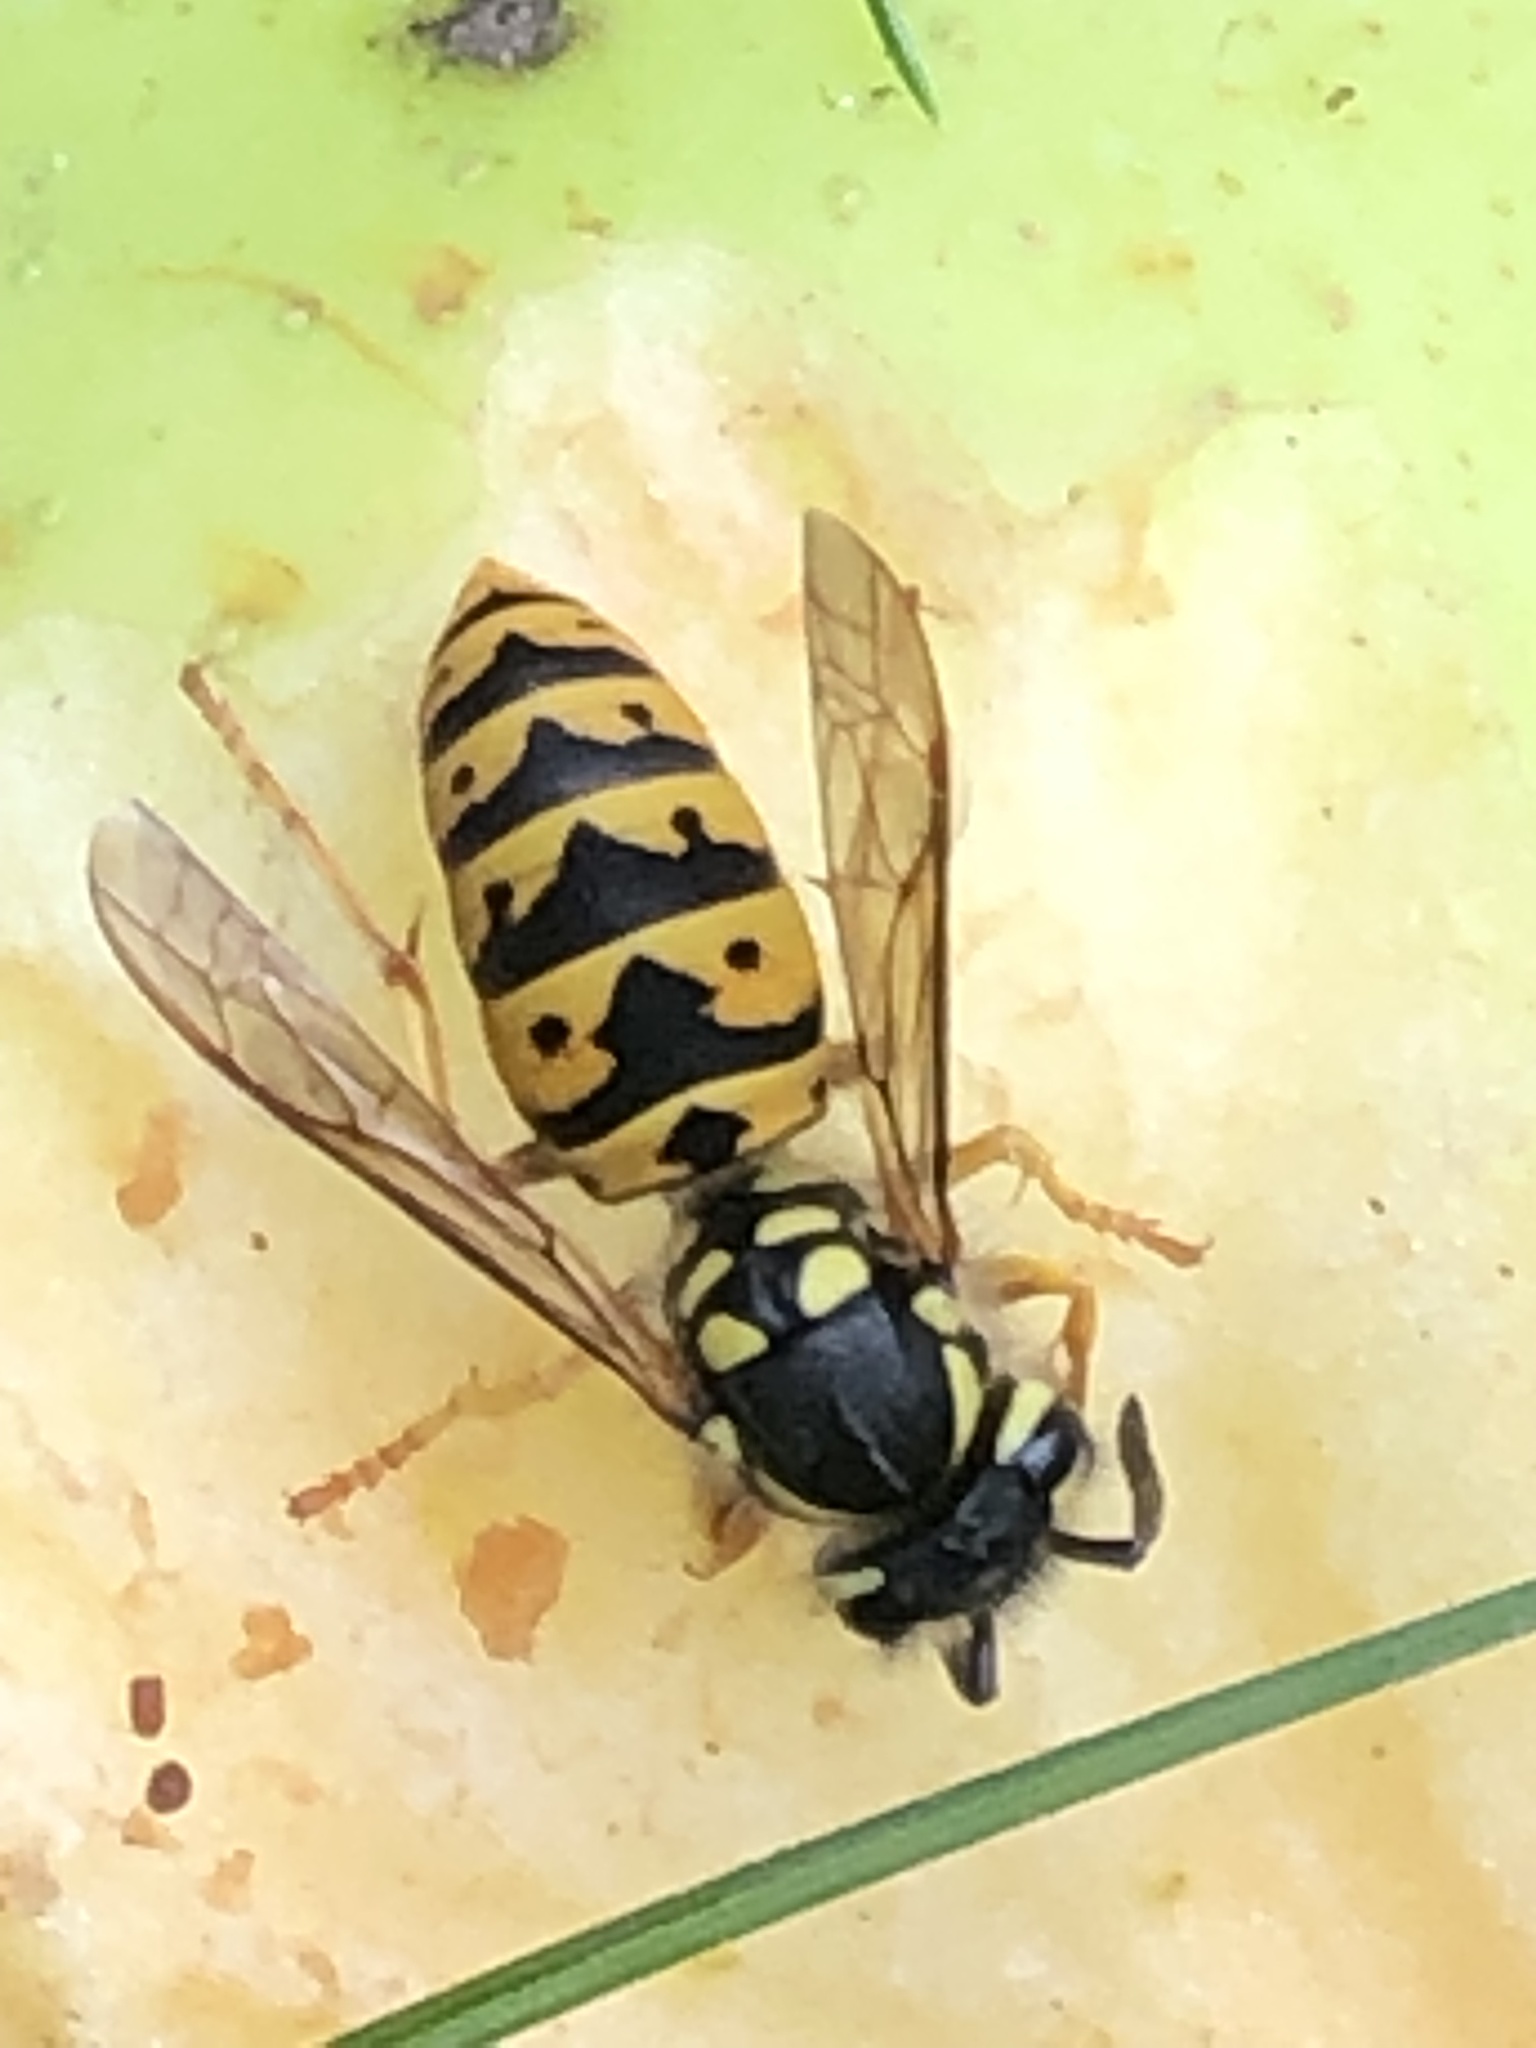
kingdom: Animalia
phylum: Arthropoda
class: Insecta
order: Hymenoptera
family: Vespidae
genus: Vespula
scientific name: Vespula germanica
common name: German wasp
